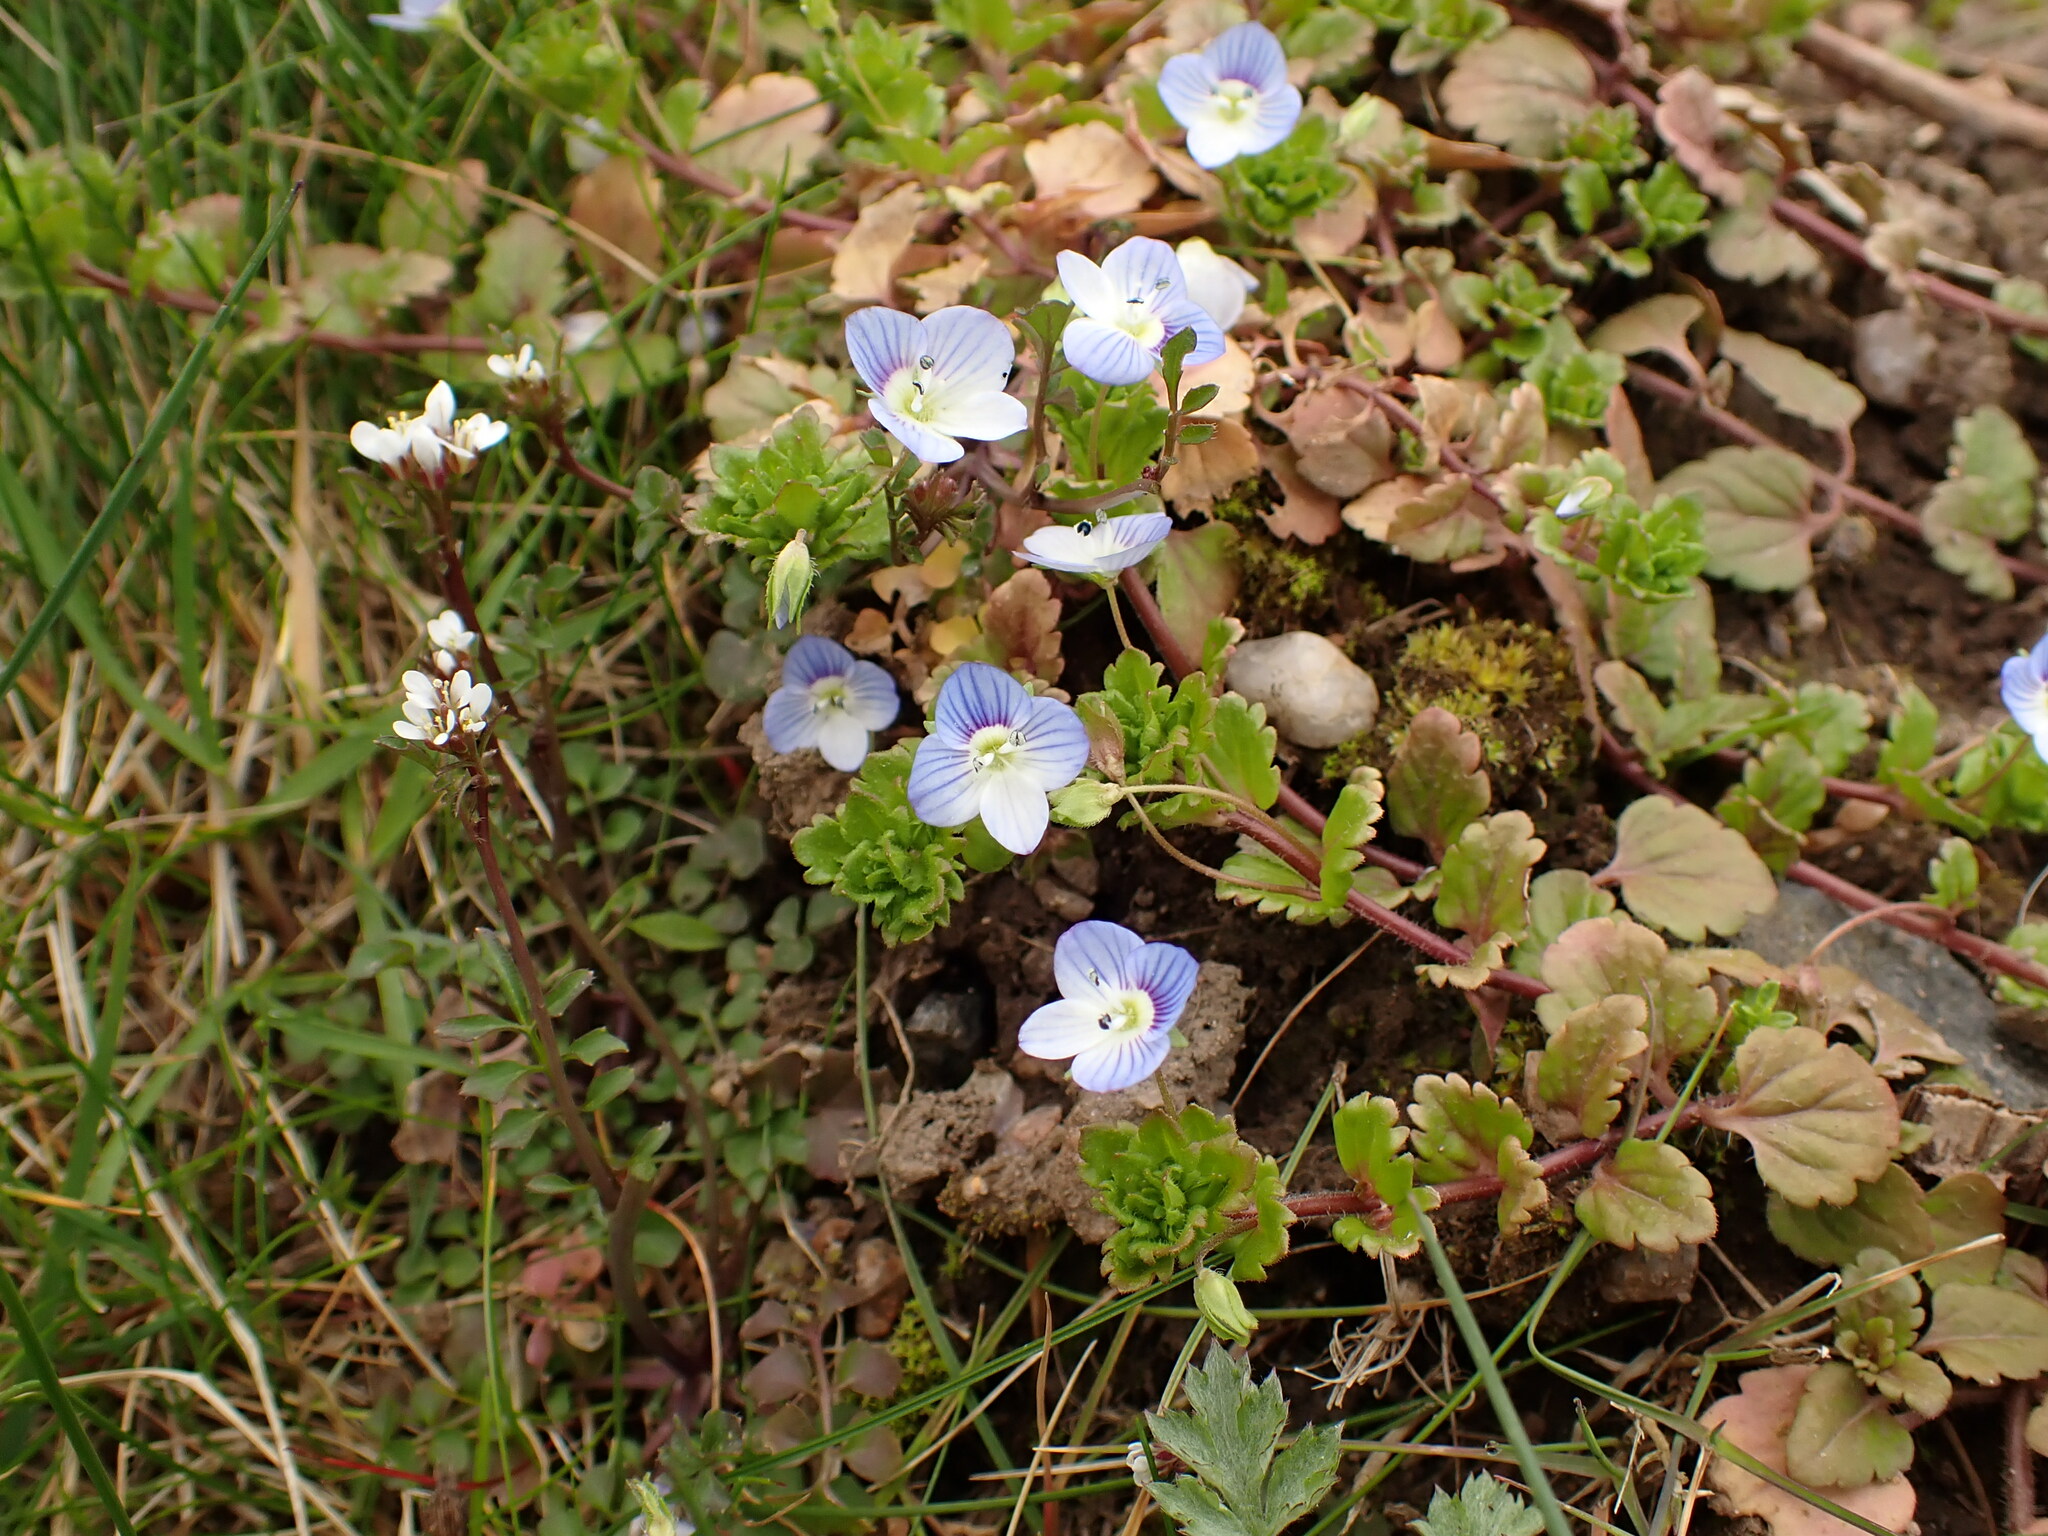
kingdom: Plantae
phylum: Tracheophyta
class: Magnoliopsida
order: Lamiales
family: Plantaginaceae
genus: Veronica
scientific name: Veronica persica
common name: Common field-speedwell
